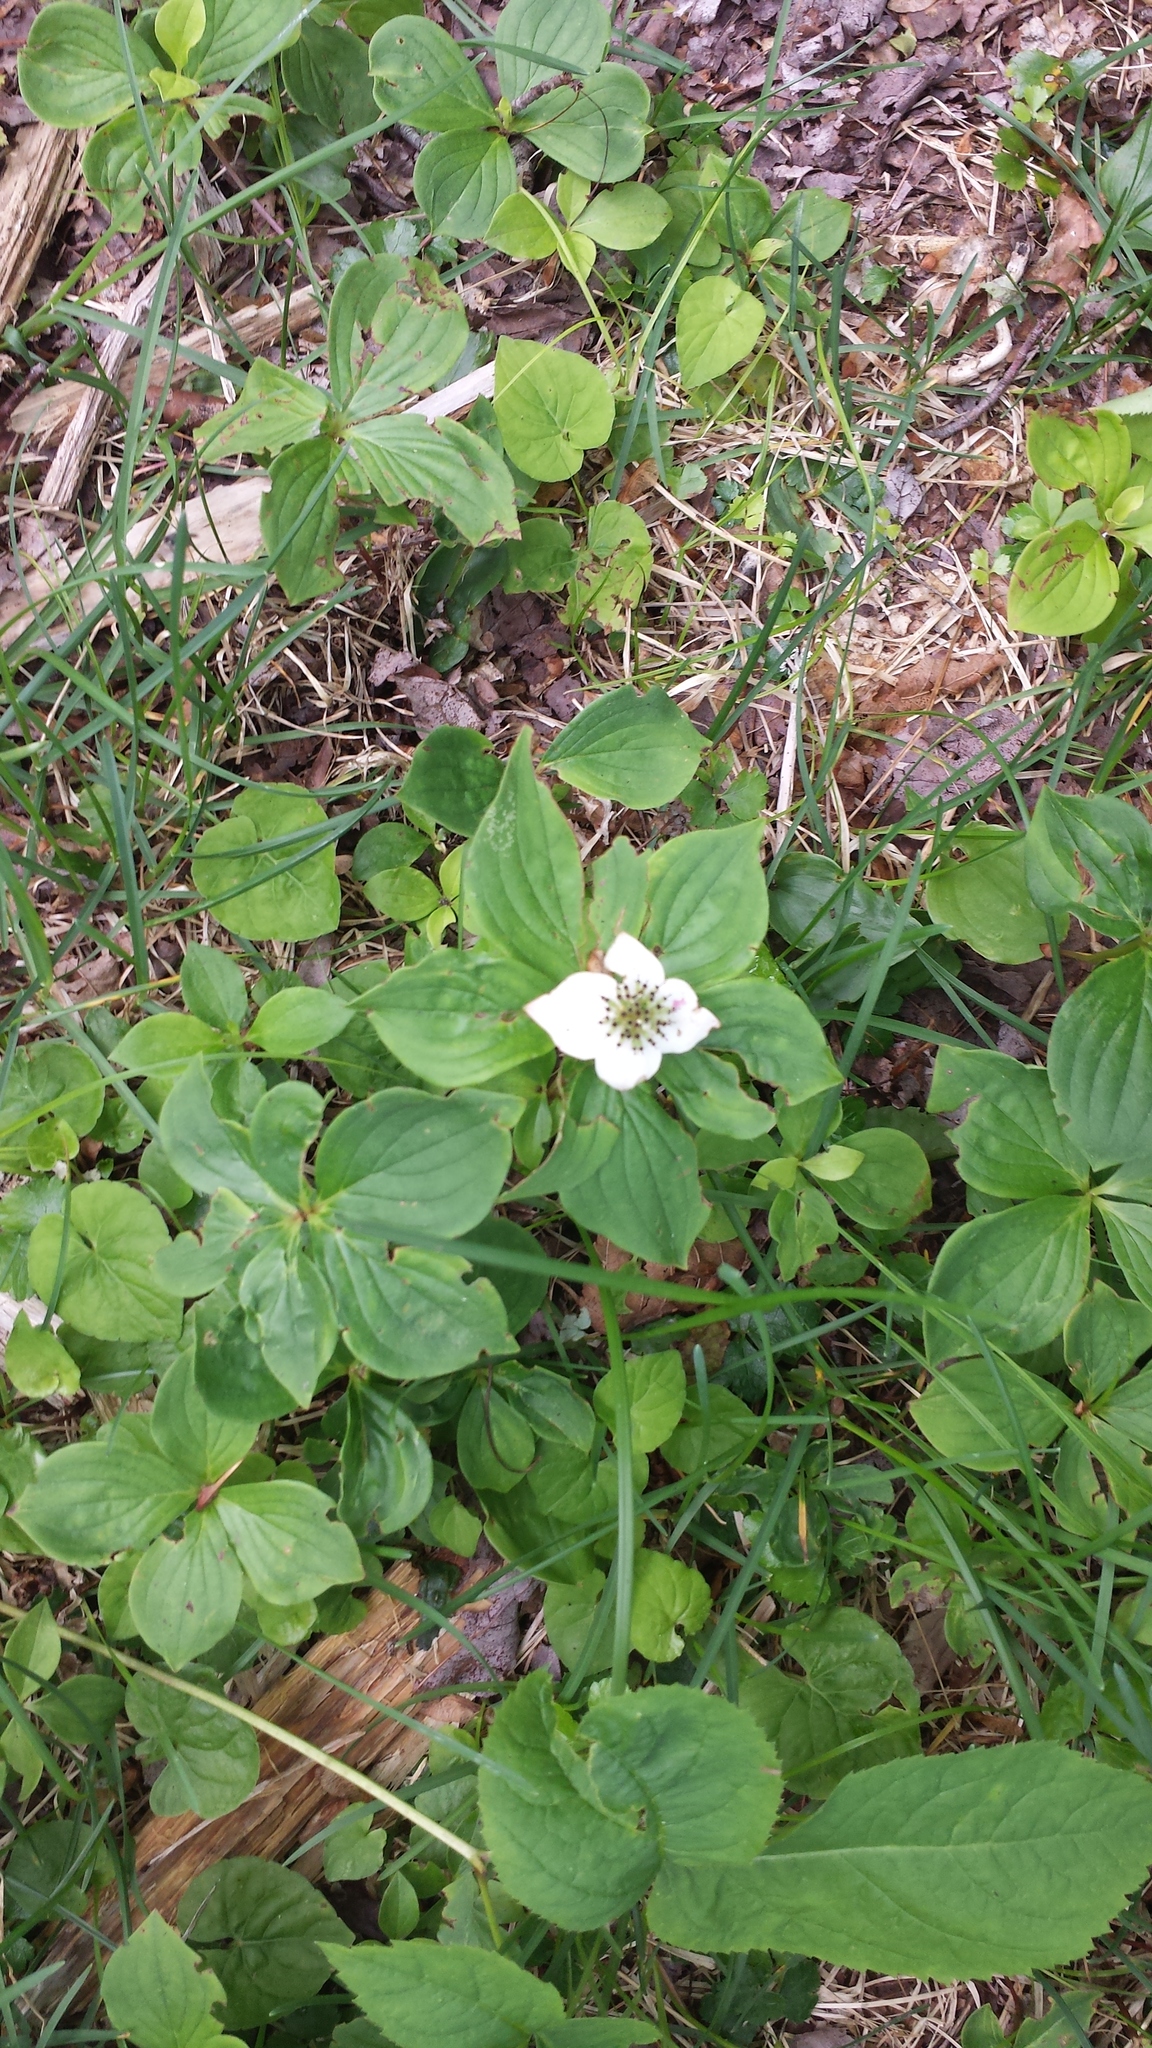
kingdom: Plantae
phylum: Tracheophyta
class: Magnoliopsida
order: Cornales
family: Cornaceae
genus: Cornus
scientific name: Cornus canadensis
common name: Creeping dogwood
